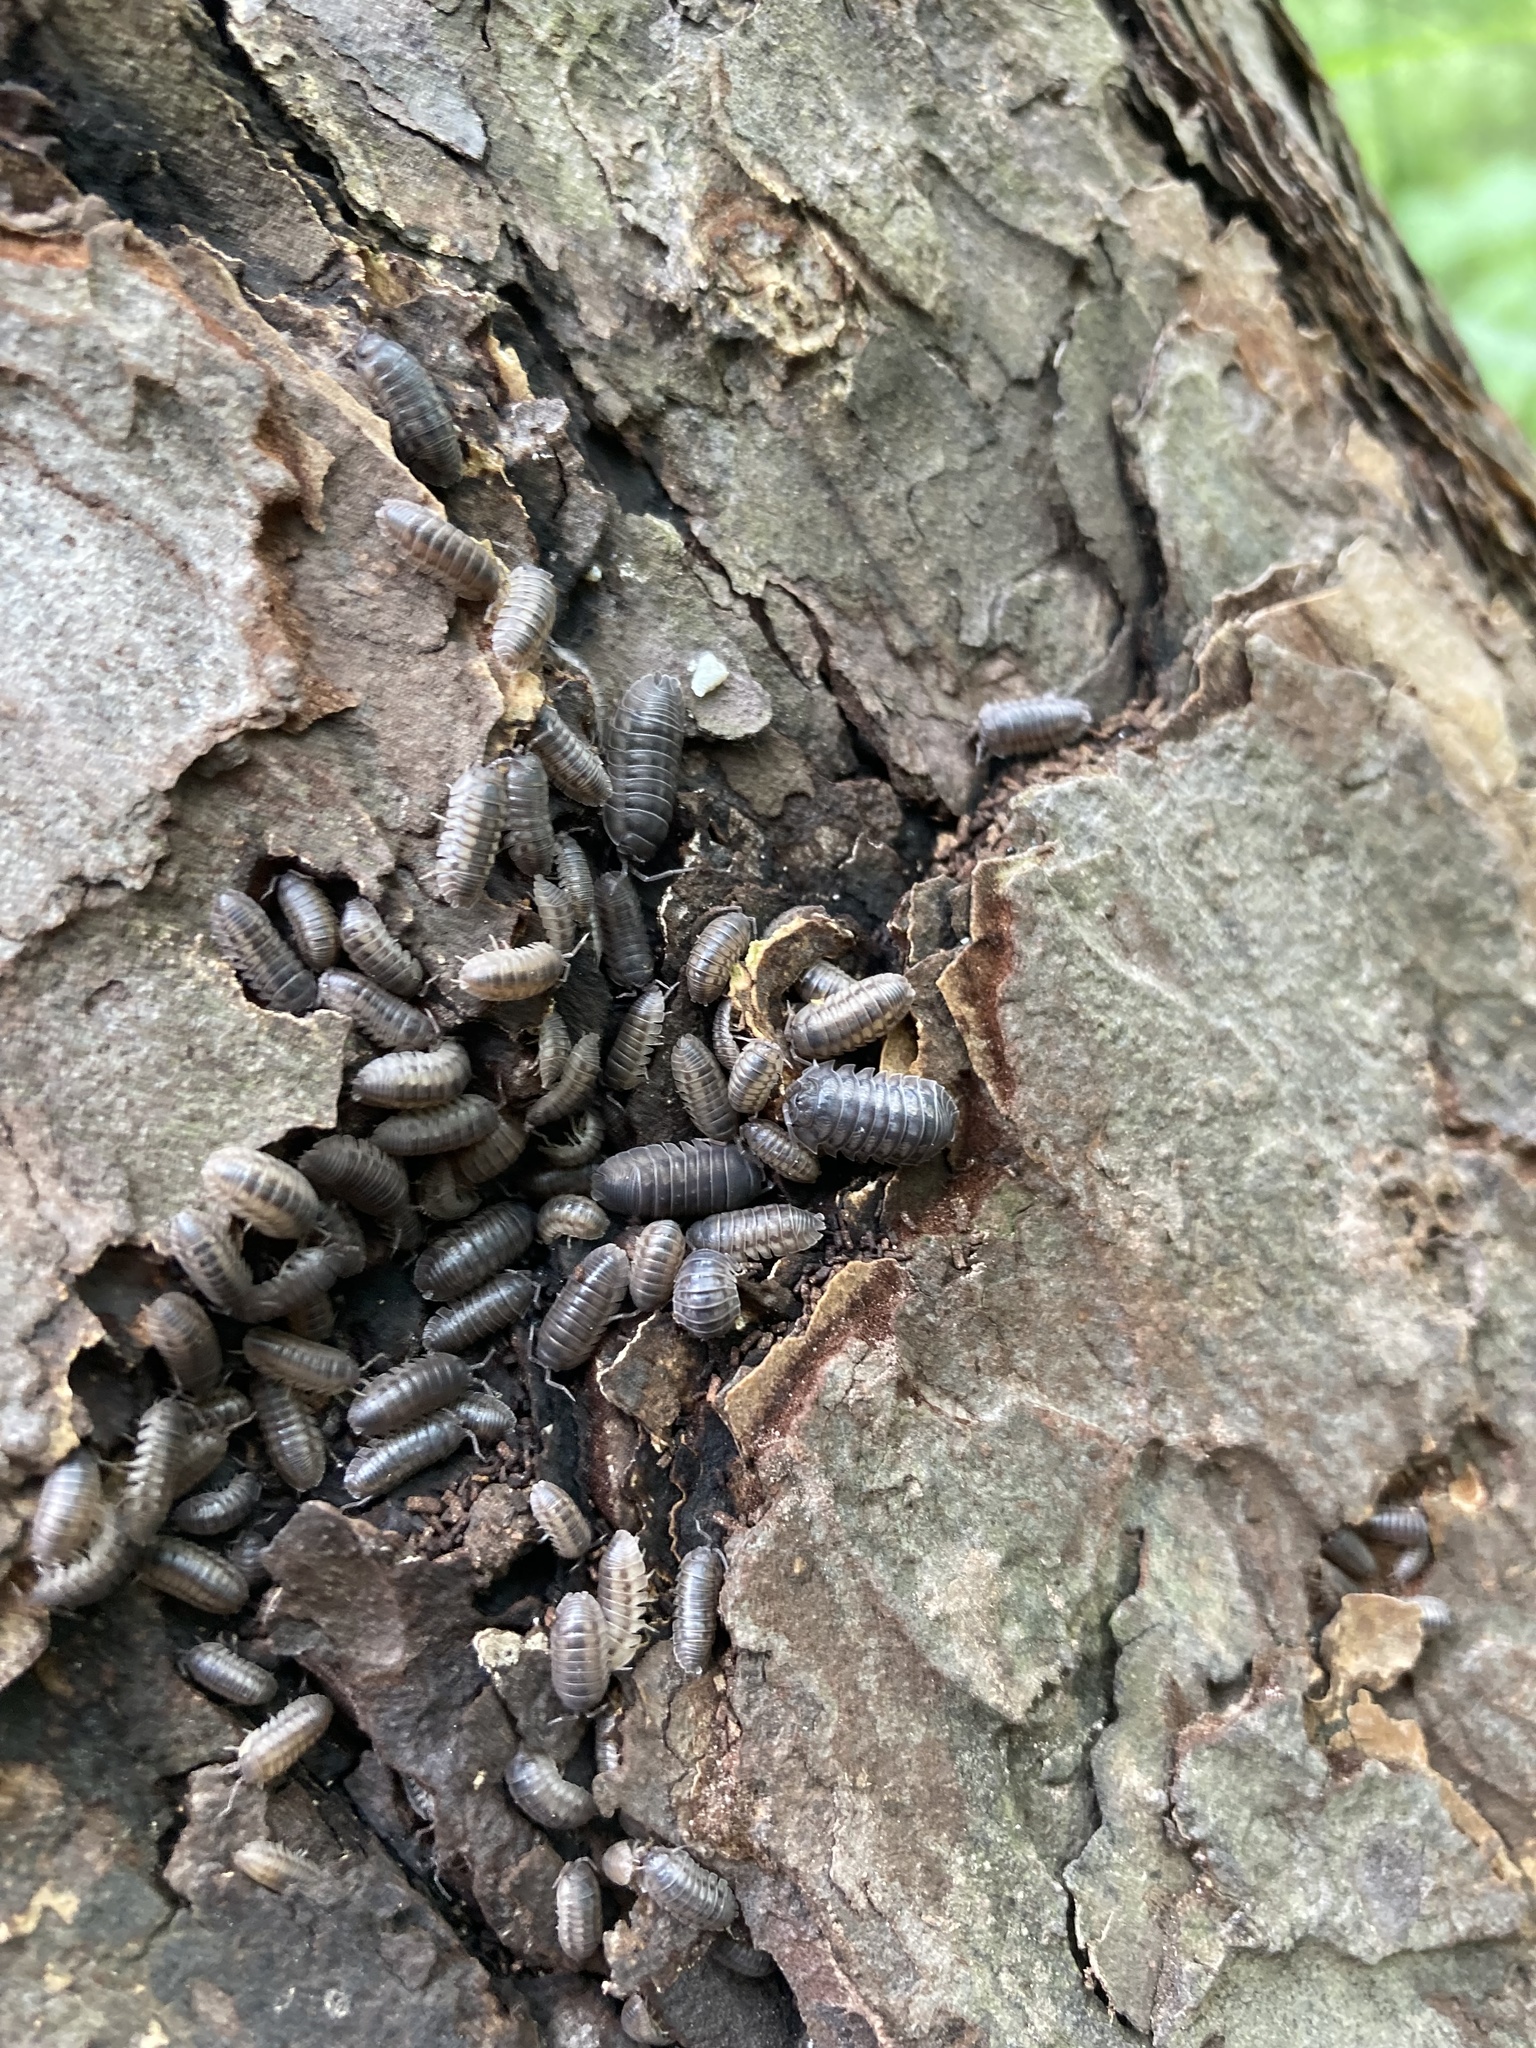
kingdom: Animalia
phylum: Arthropoda
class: Malacostraca
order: Isopoda
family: Armadillidiidae
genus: Armadillidium
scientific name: Armadillidium nasatum
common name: Isopod
